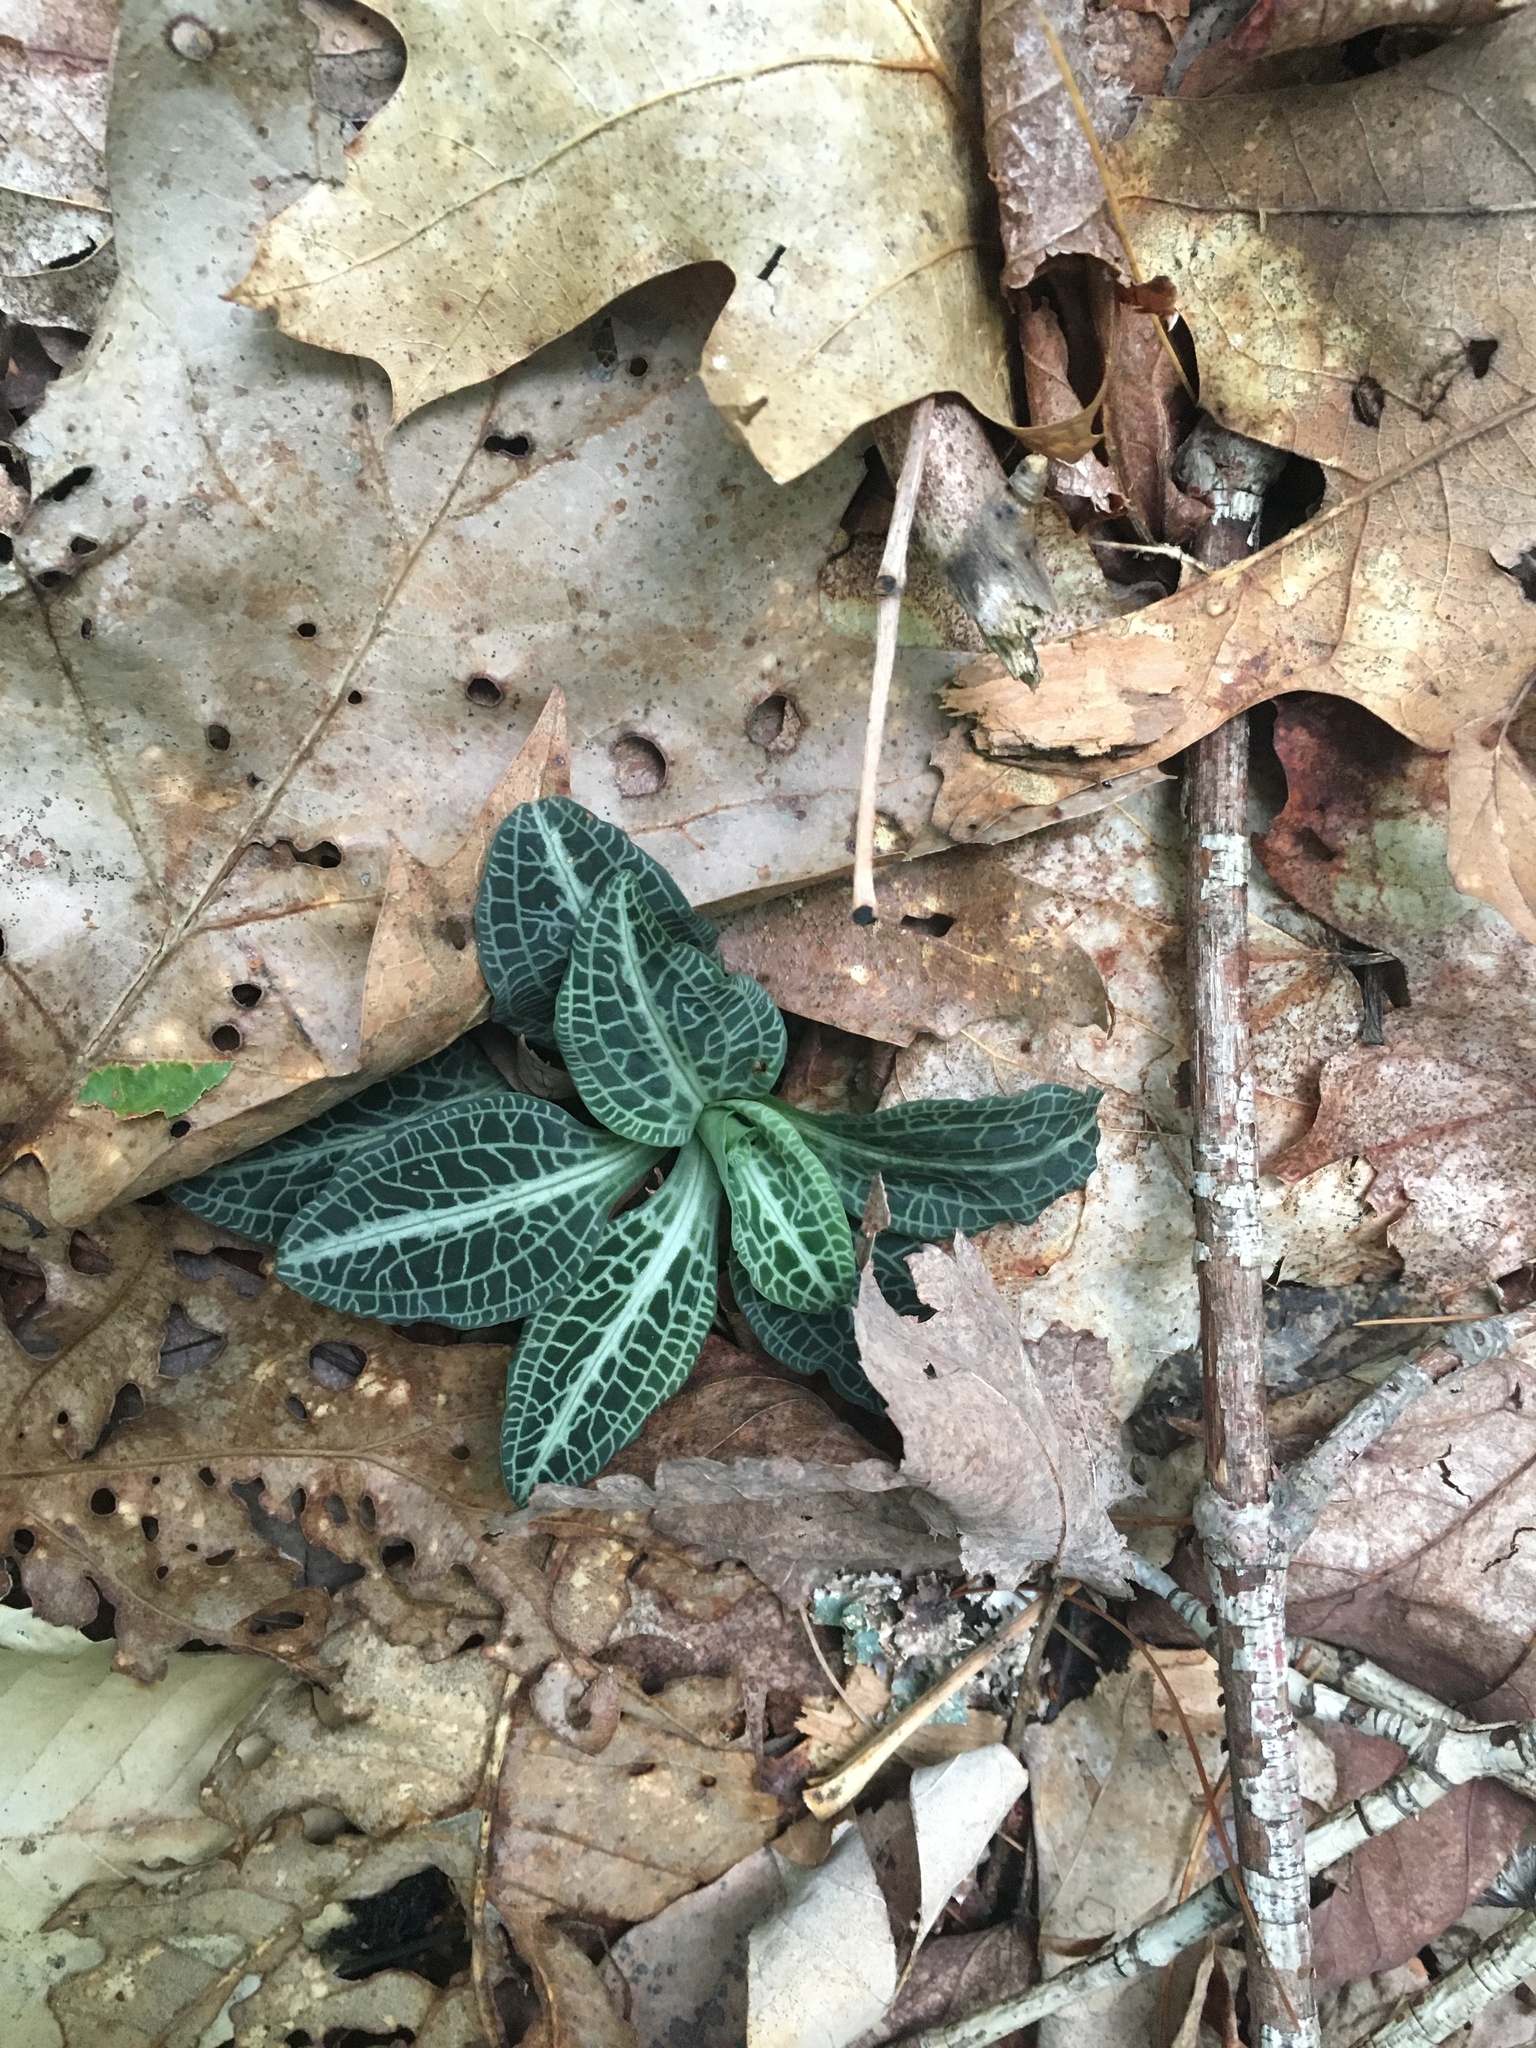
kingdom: Plantae
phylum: Tracheophyta
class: Liliopsida
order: Asparagales
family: Orchidaceae
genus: Goodyera
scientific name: Goodyera pubescens
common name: Downy rattlesnake-plantain
